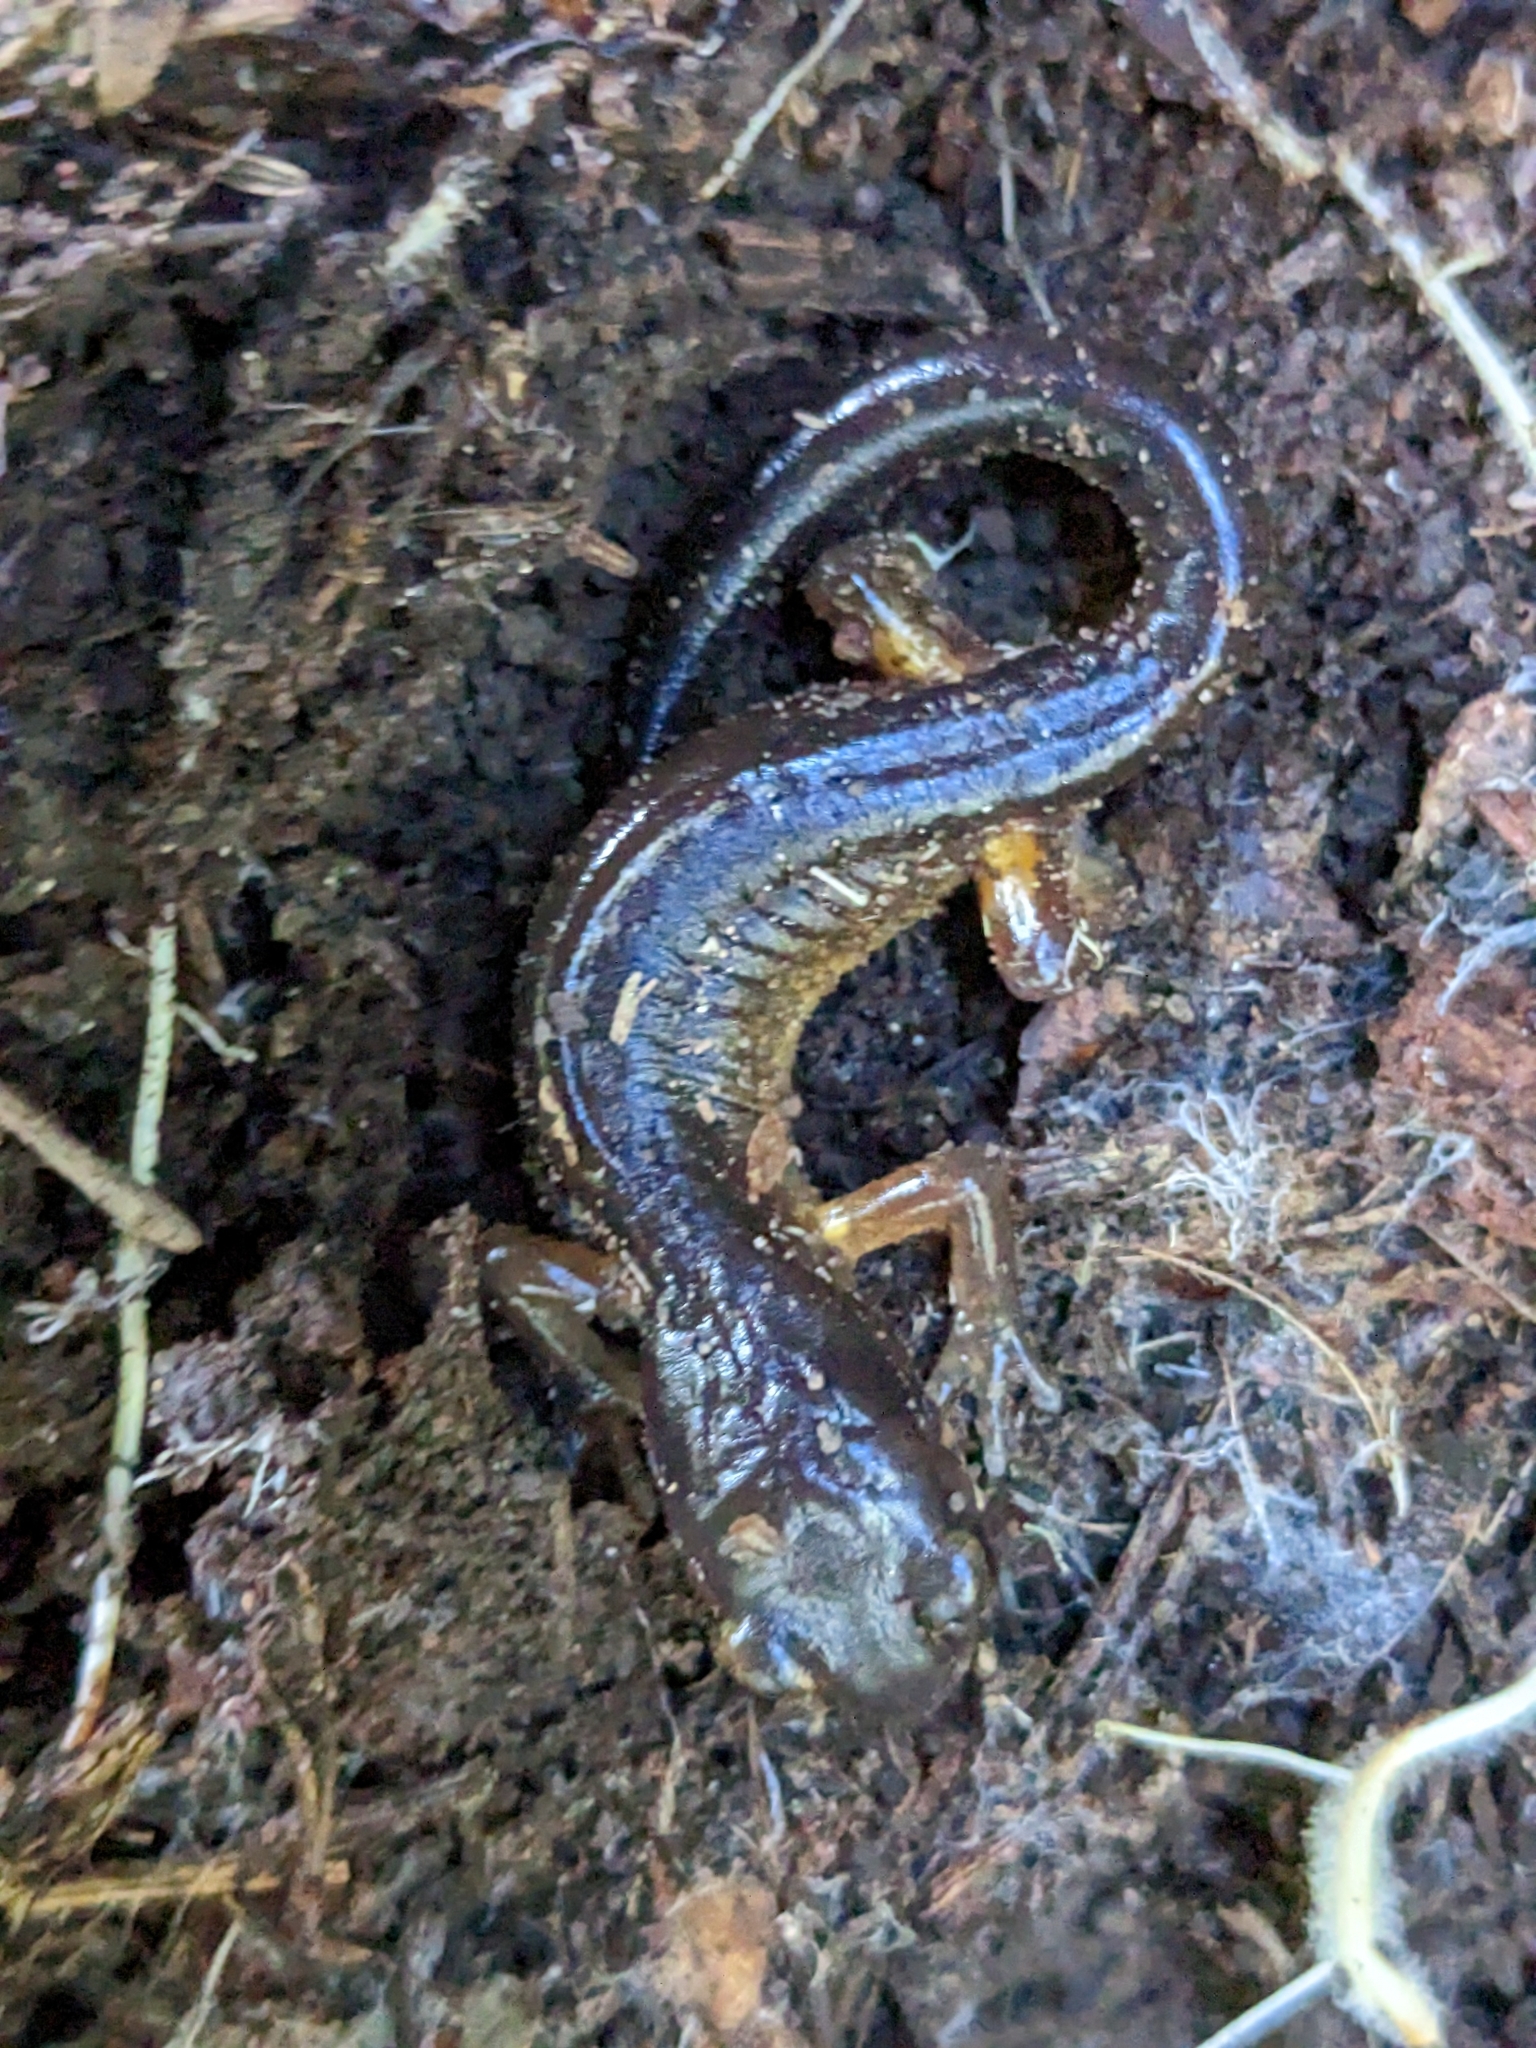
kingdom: Animalia
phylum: Chordata
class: Amphibia
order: Caudata
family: Plethodontidae
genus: Ensatina
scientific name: Ensatina eschscholtzii
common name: Ensatina
